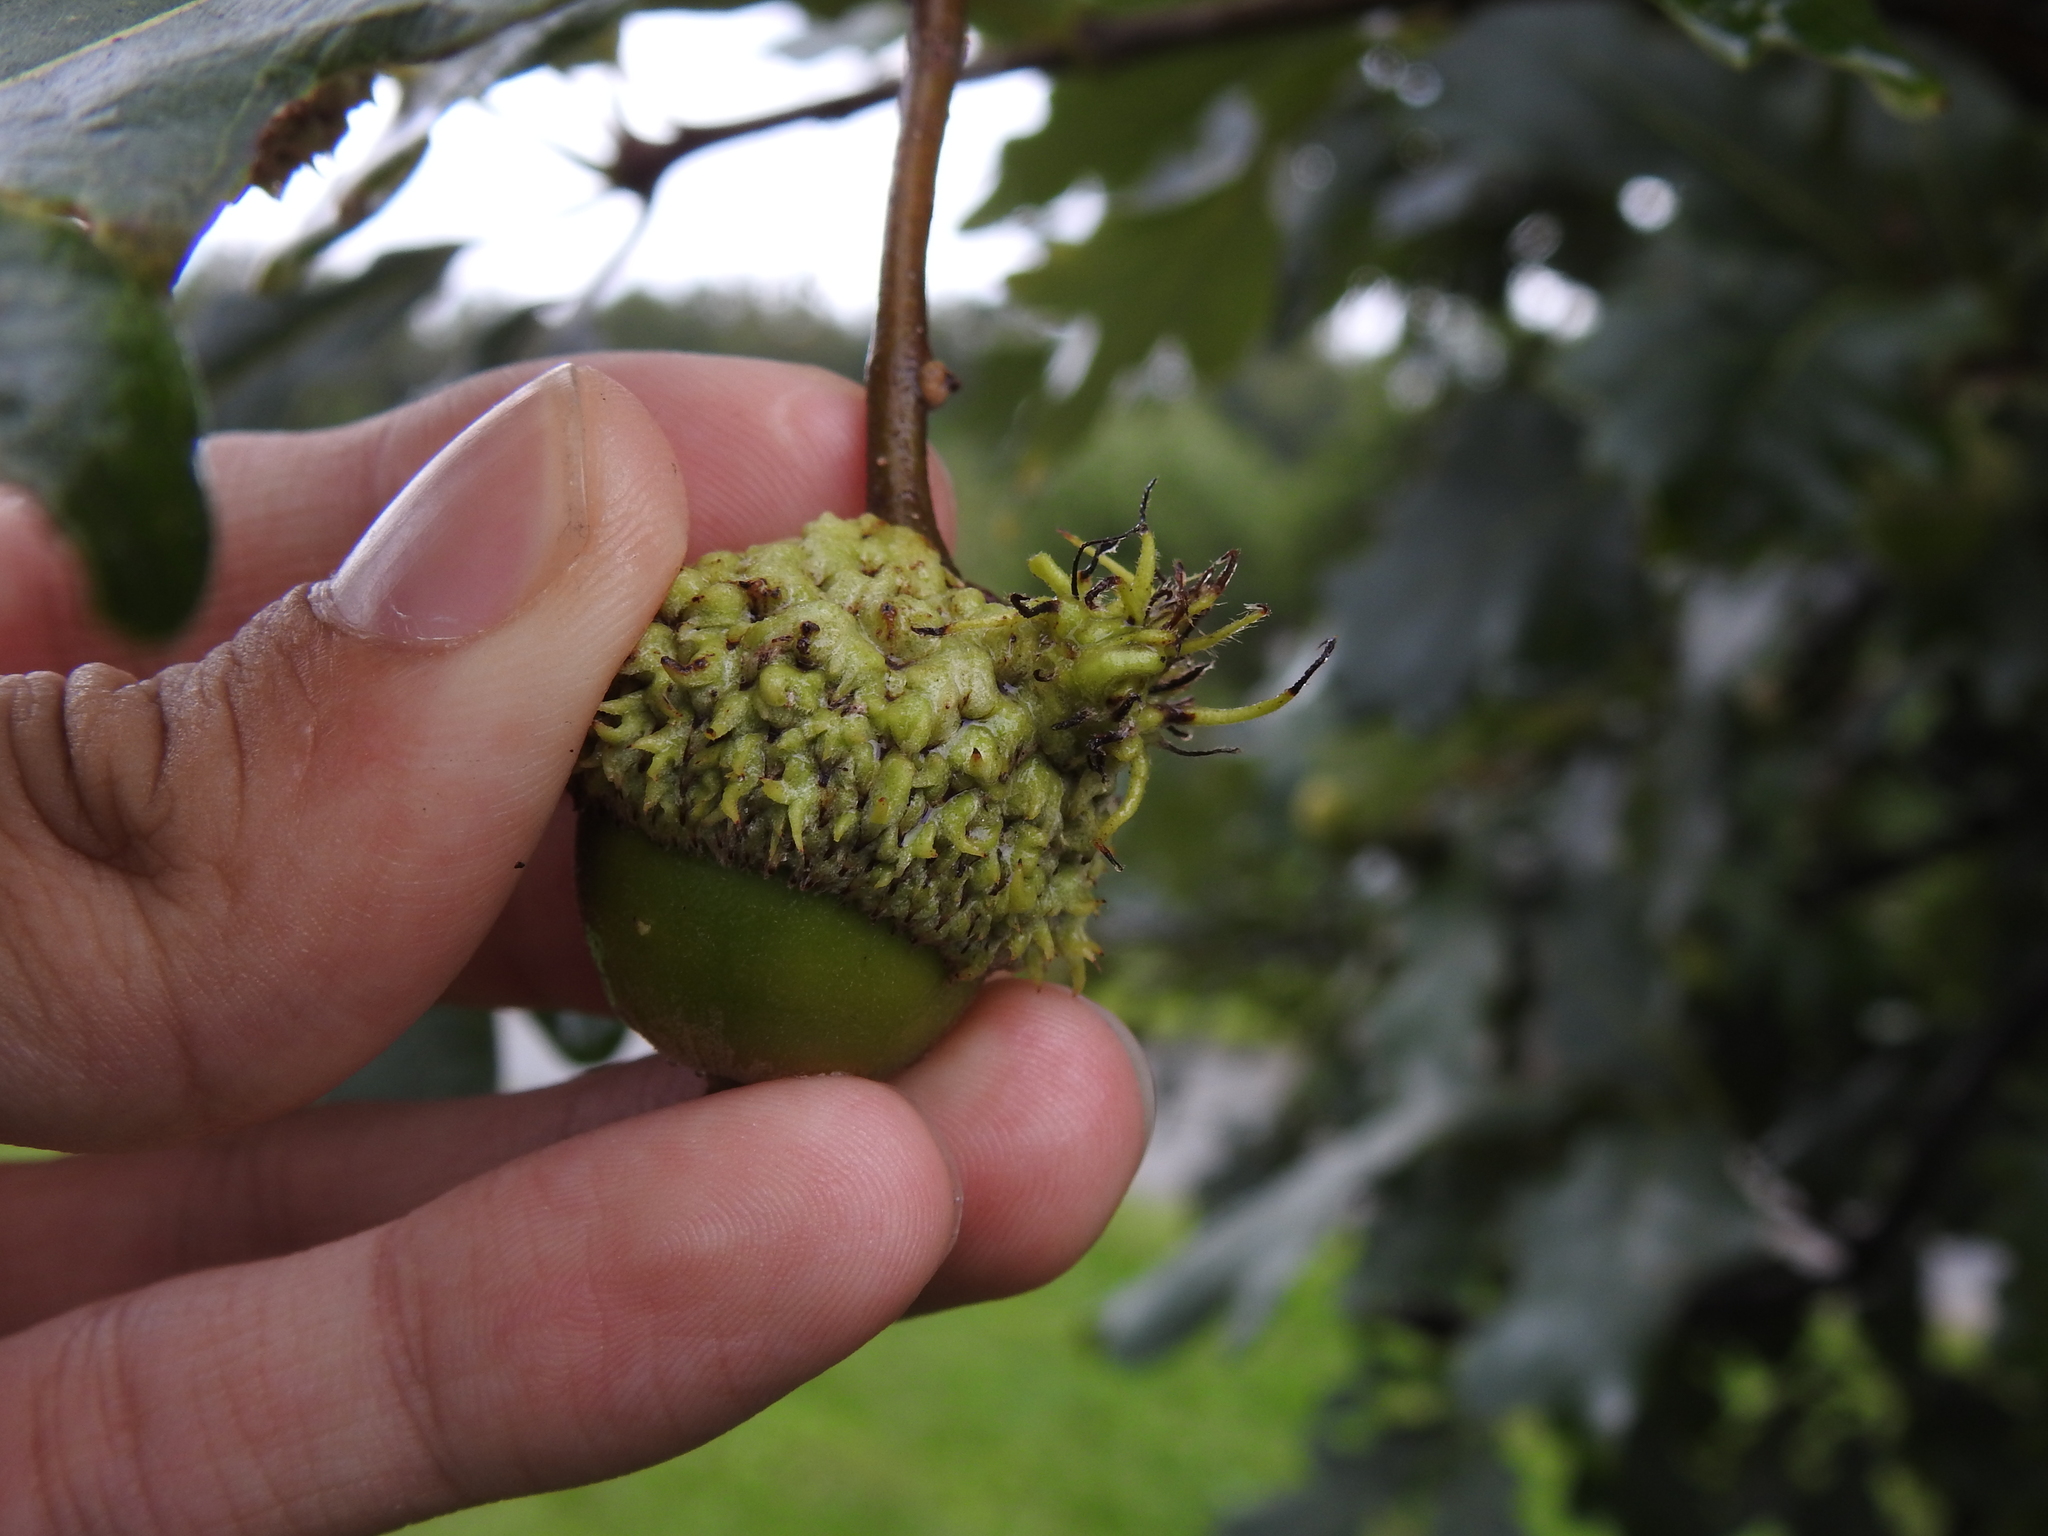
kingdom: Animalia
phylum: Arthropoda
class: Insecta
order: Hymenoptera
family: Cynipidae
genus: Andricus
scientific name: Andricus
